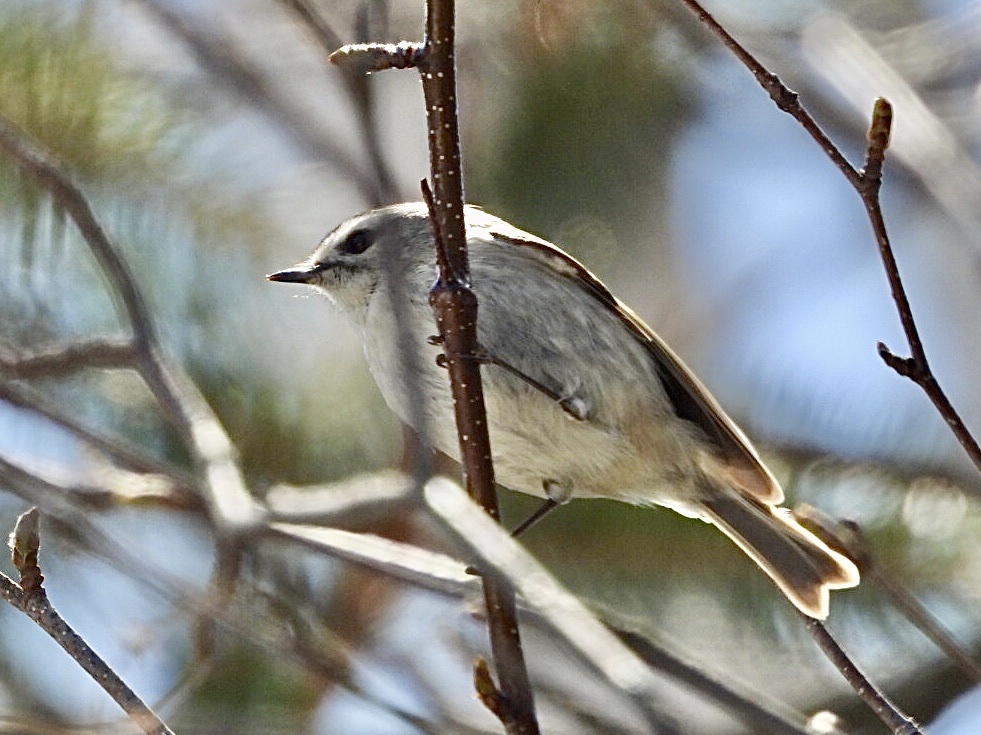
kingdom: Animalia
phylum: Chordata
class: Aves
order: Passeriformes
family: Regulidae
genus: Regulus
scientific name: Regulus satrapa
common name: Golden-crowned kinglet
